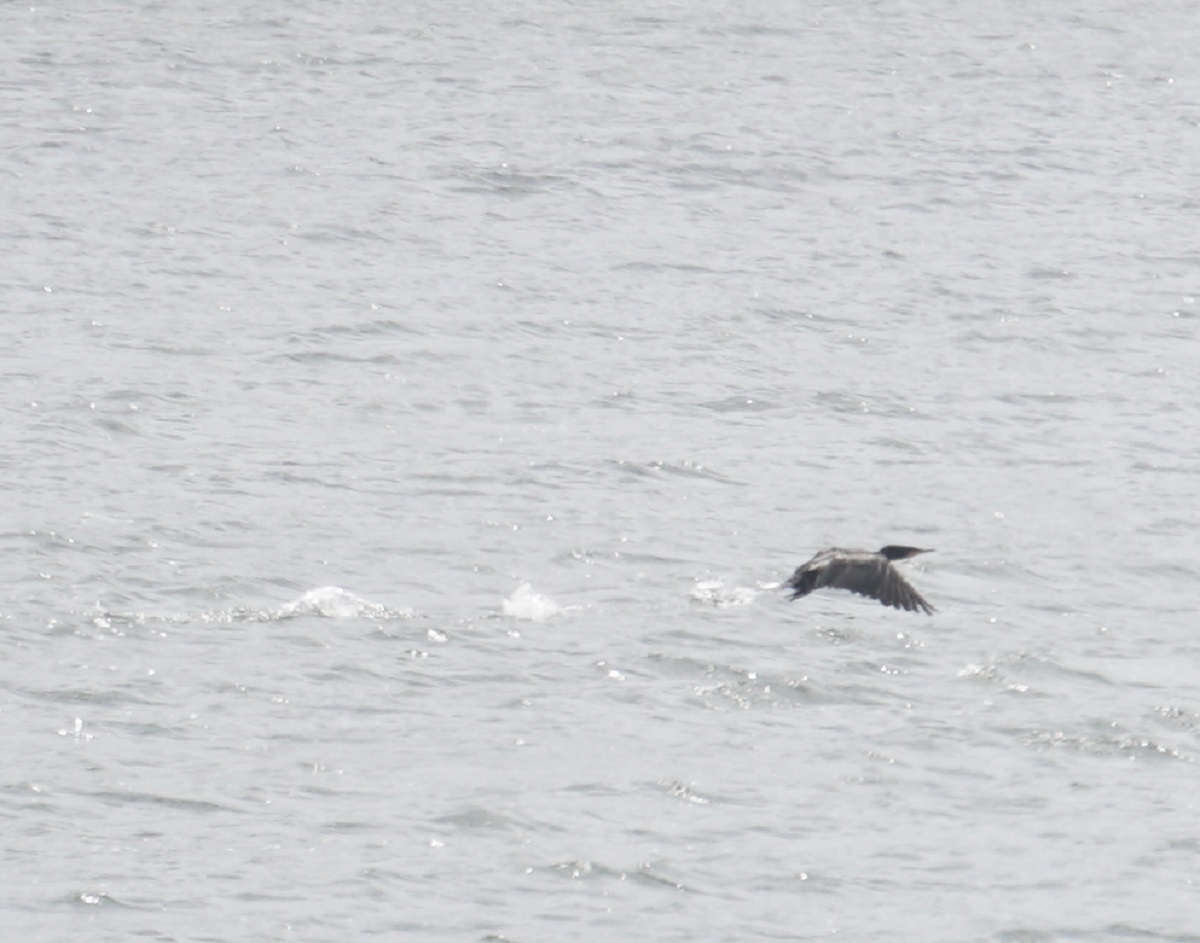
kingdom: Animalia
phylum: Chordata
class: Aves
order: Suliformes
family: Phalacrocoracidae
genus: Phalacrocorax
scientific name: Phalacrocorax carbo
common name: Great cormorant
